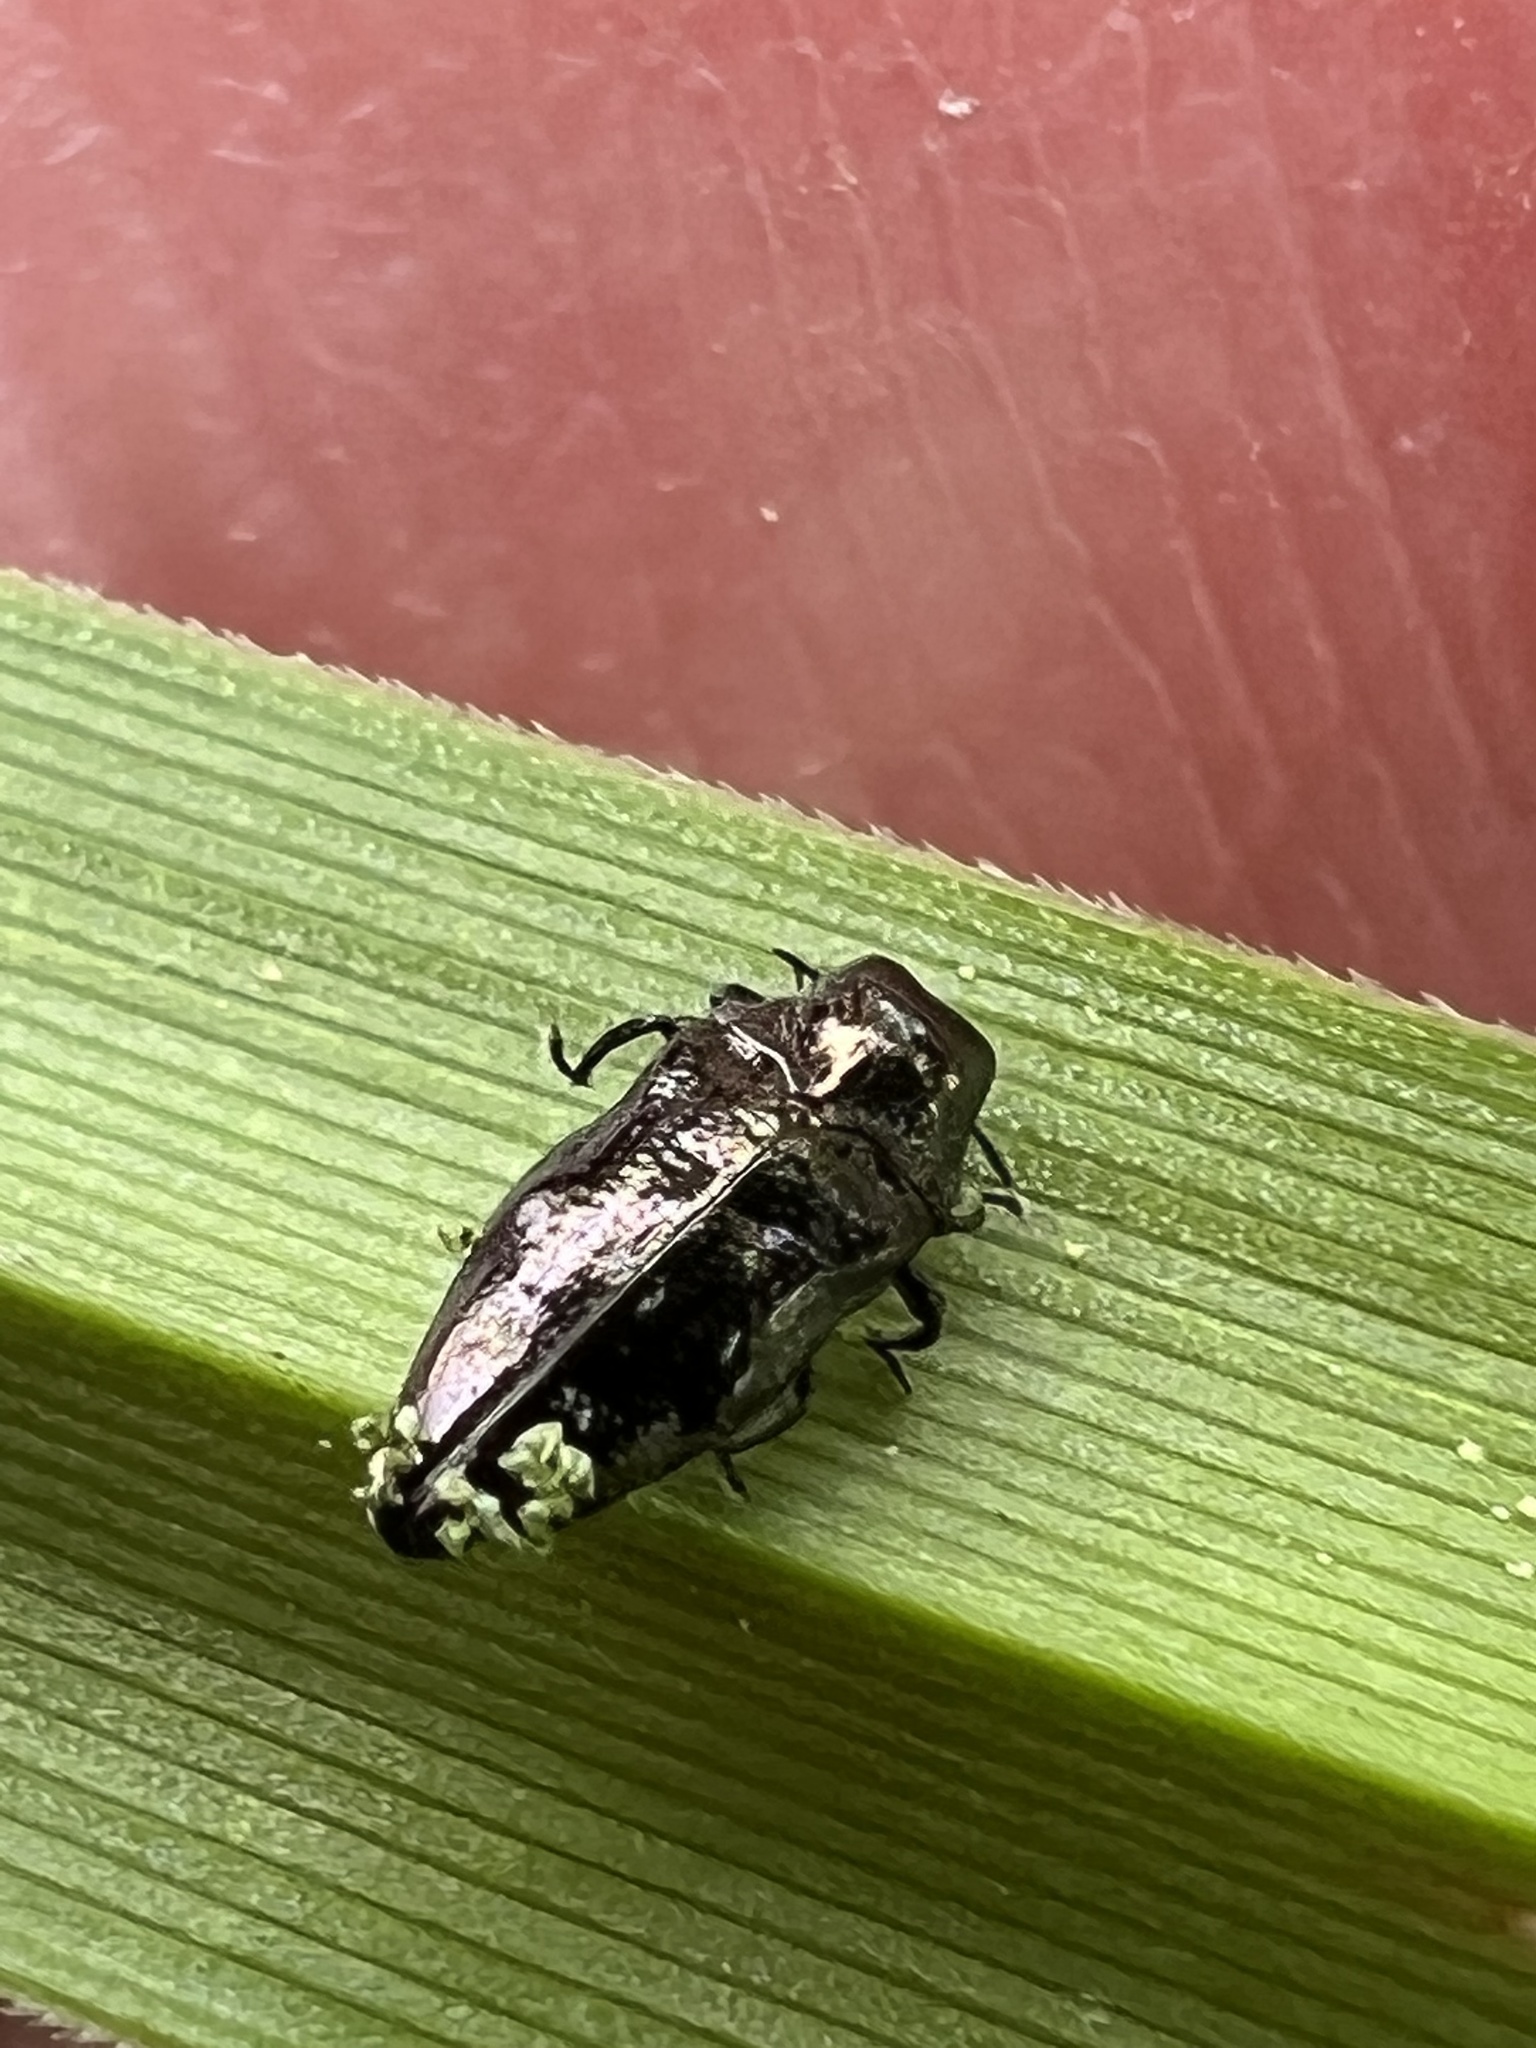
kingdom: Animalia
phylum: Arthropoda
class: Insecta
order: Coleoptera
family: Buprestidae
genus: Taphrocerus
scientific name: Taphrocerus gracilis
